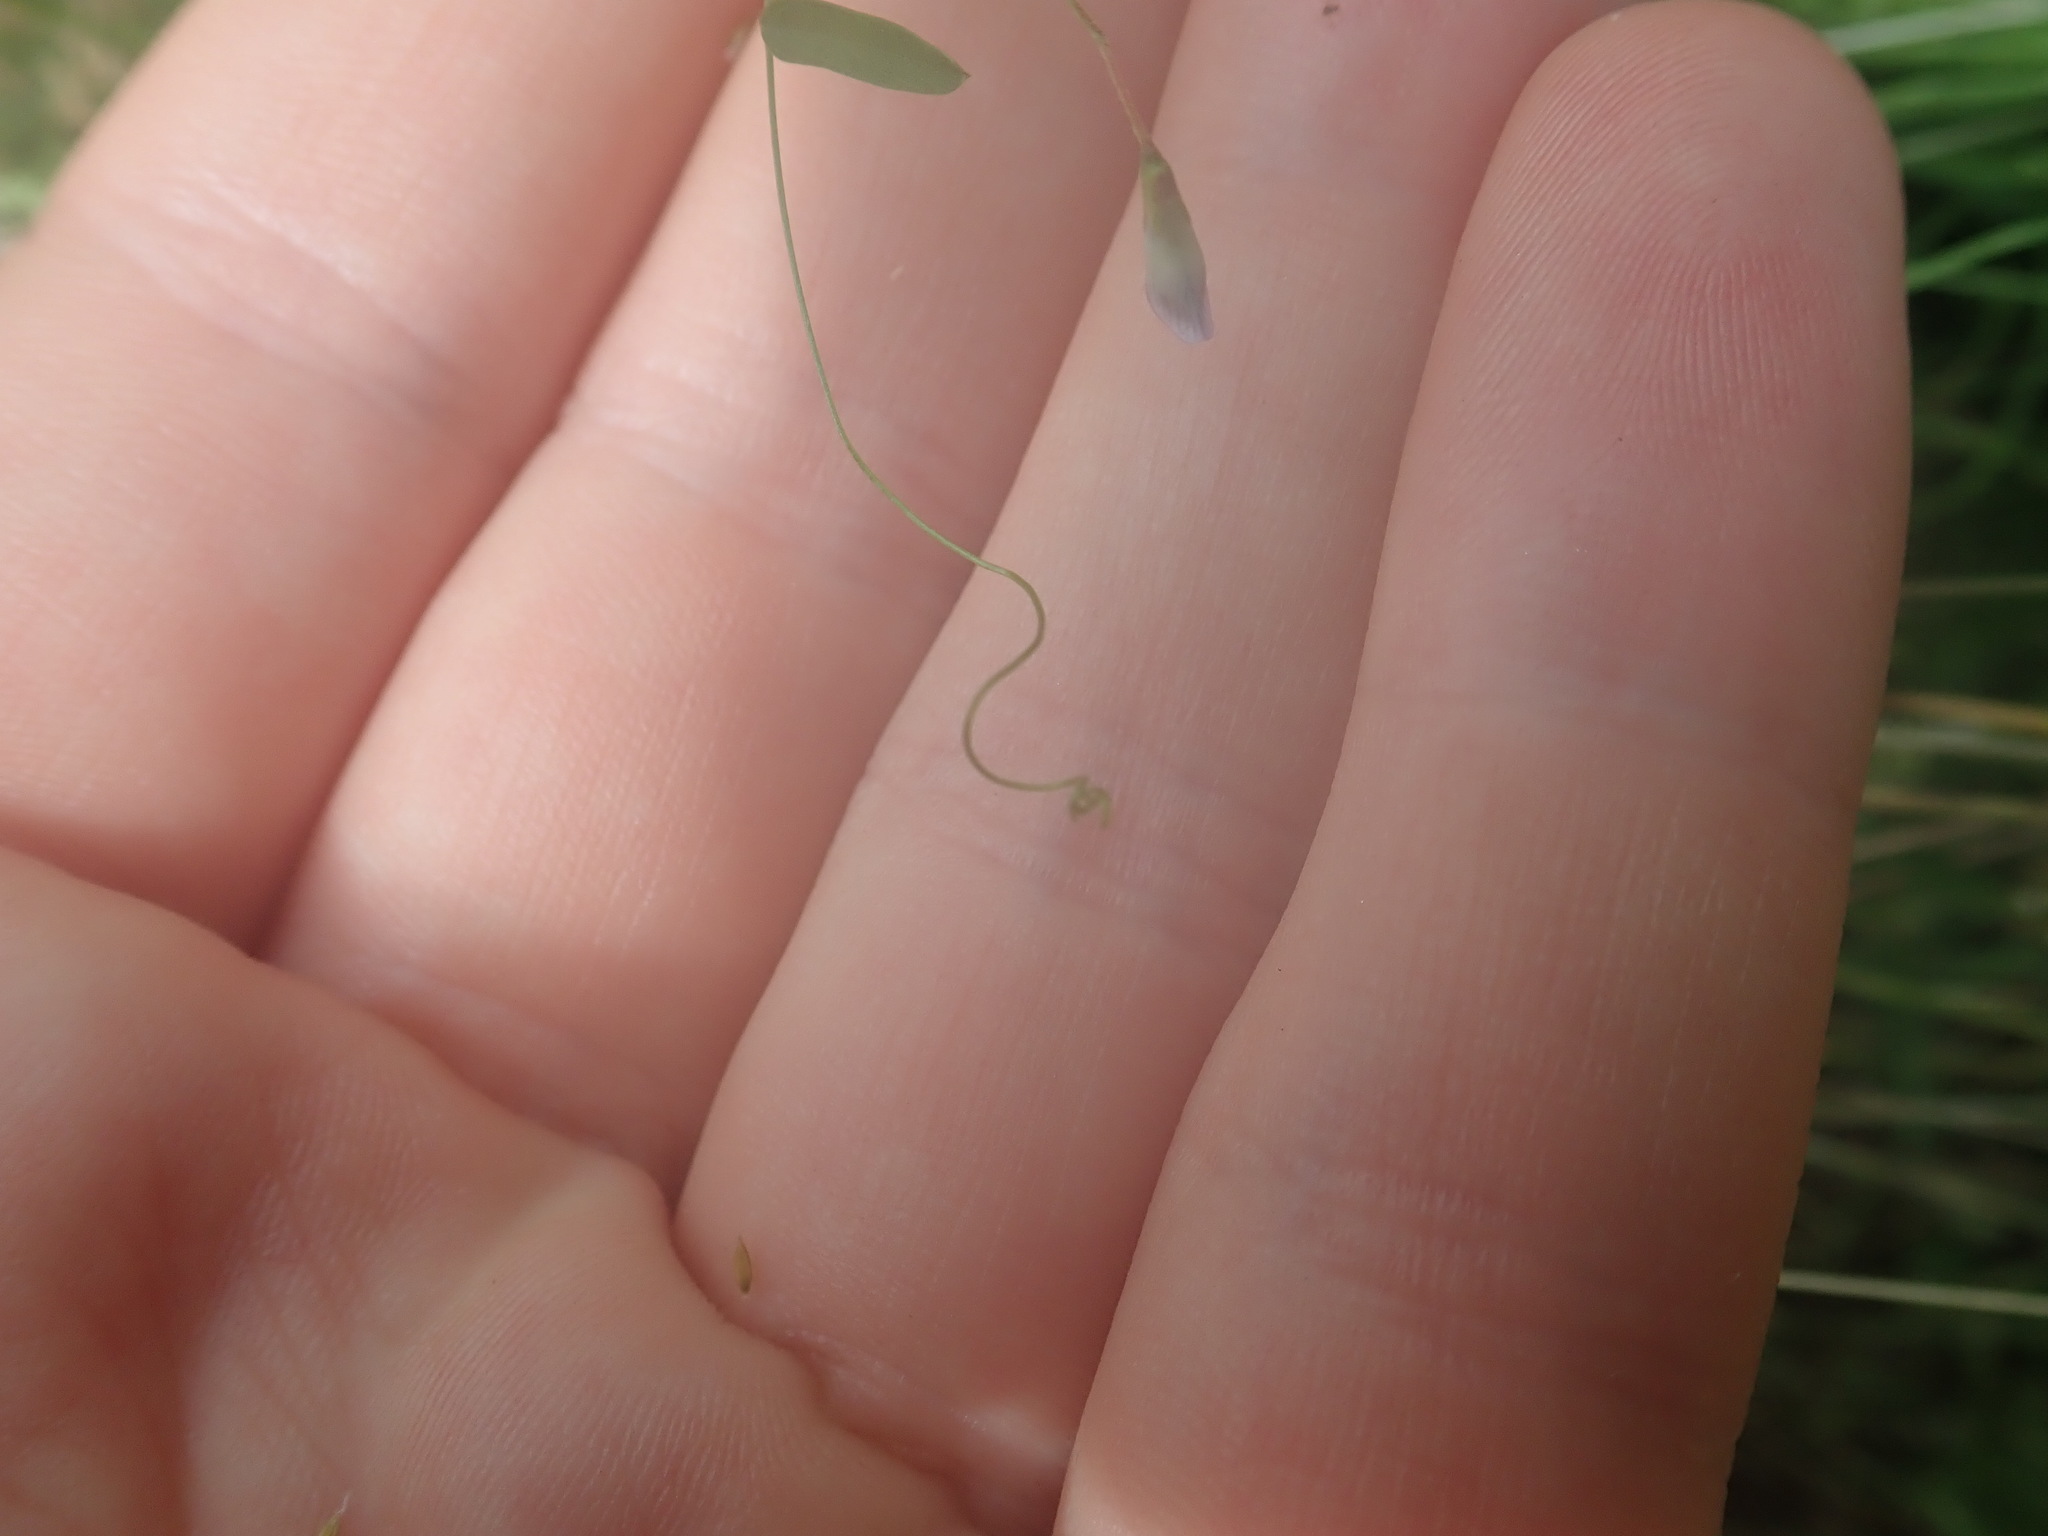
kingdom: Plantae
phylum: Tracheophyta
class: Magnoliopsida
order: Fabales
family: Fabaceae
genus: Vicia
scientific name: Vicia pubescens
